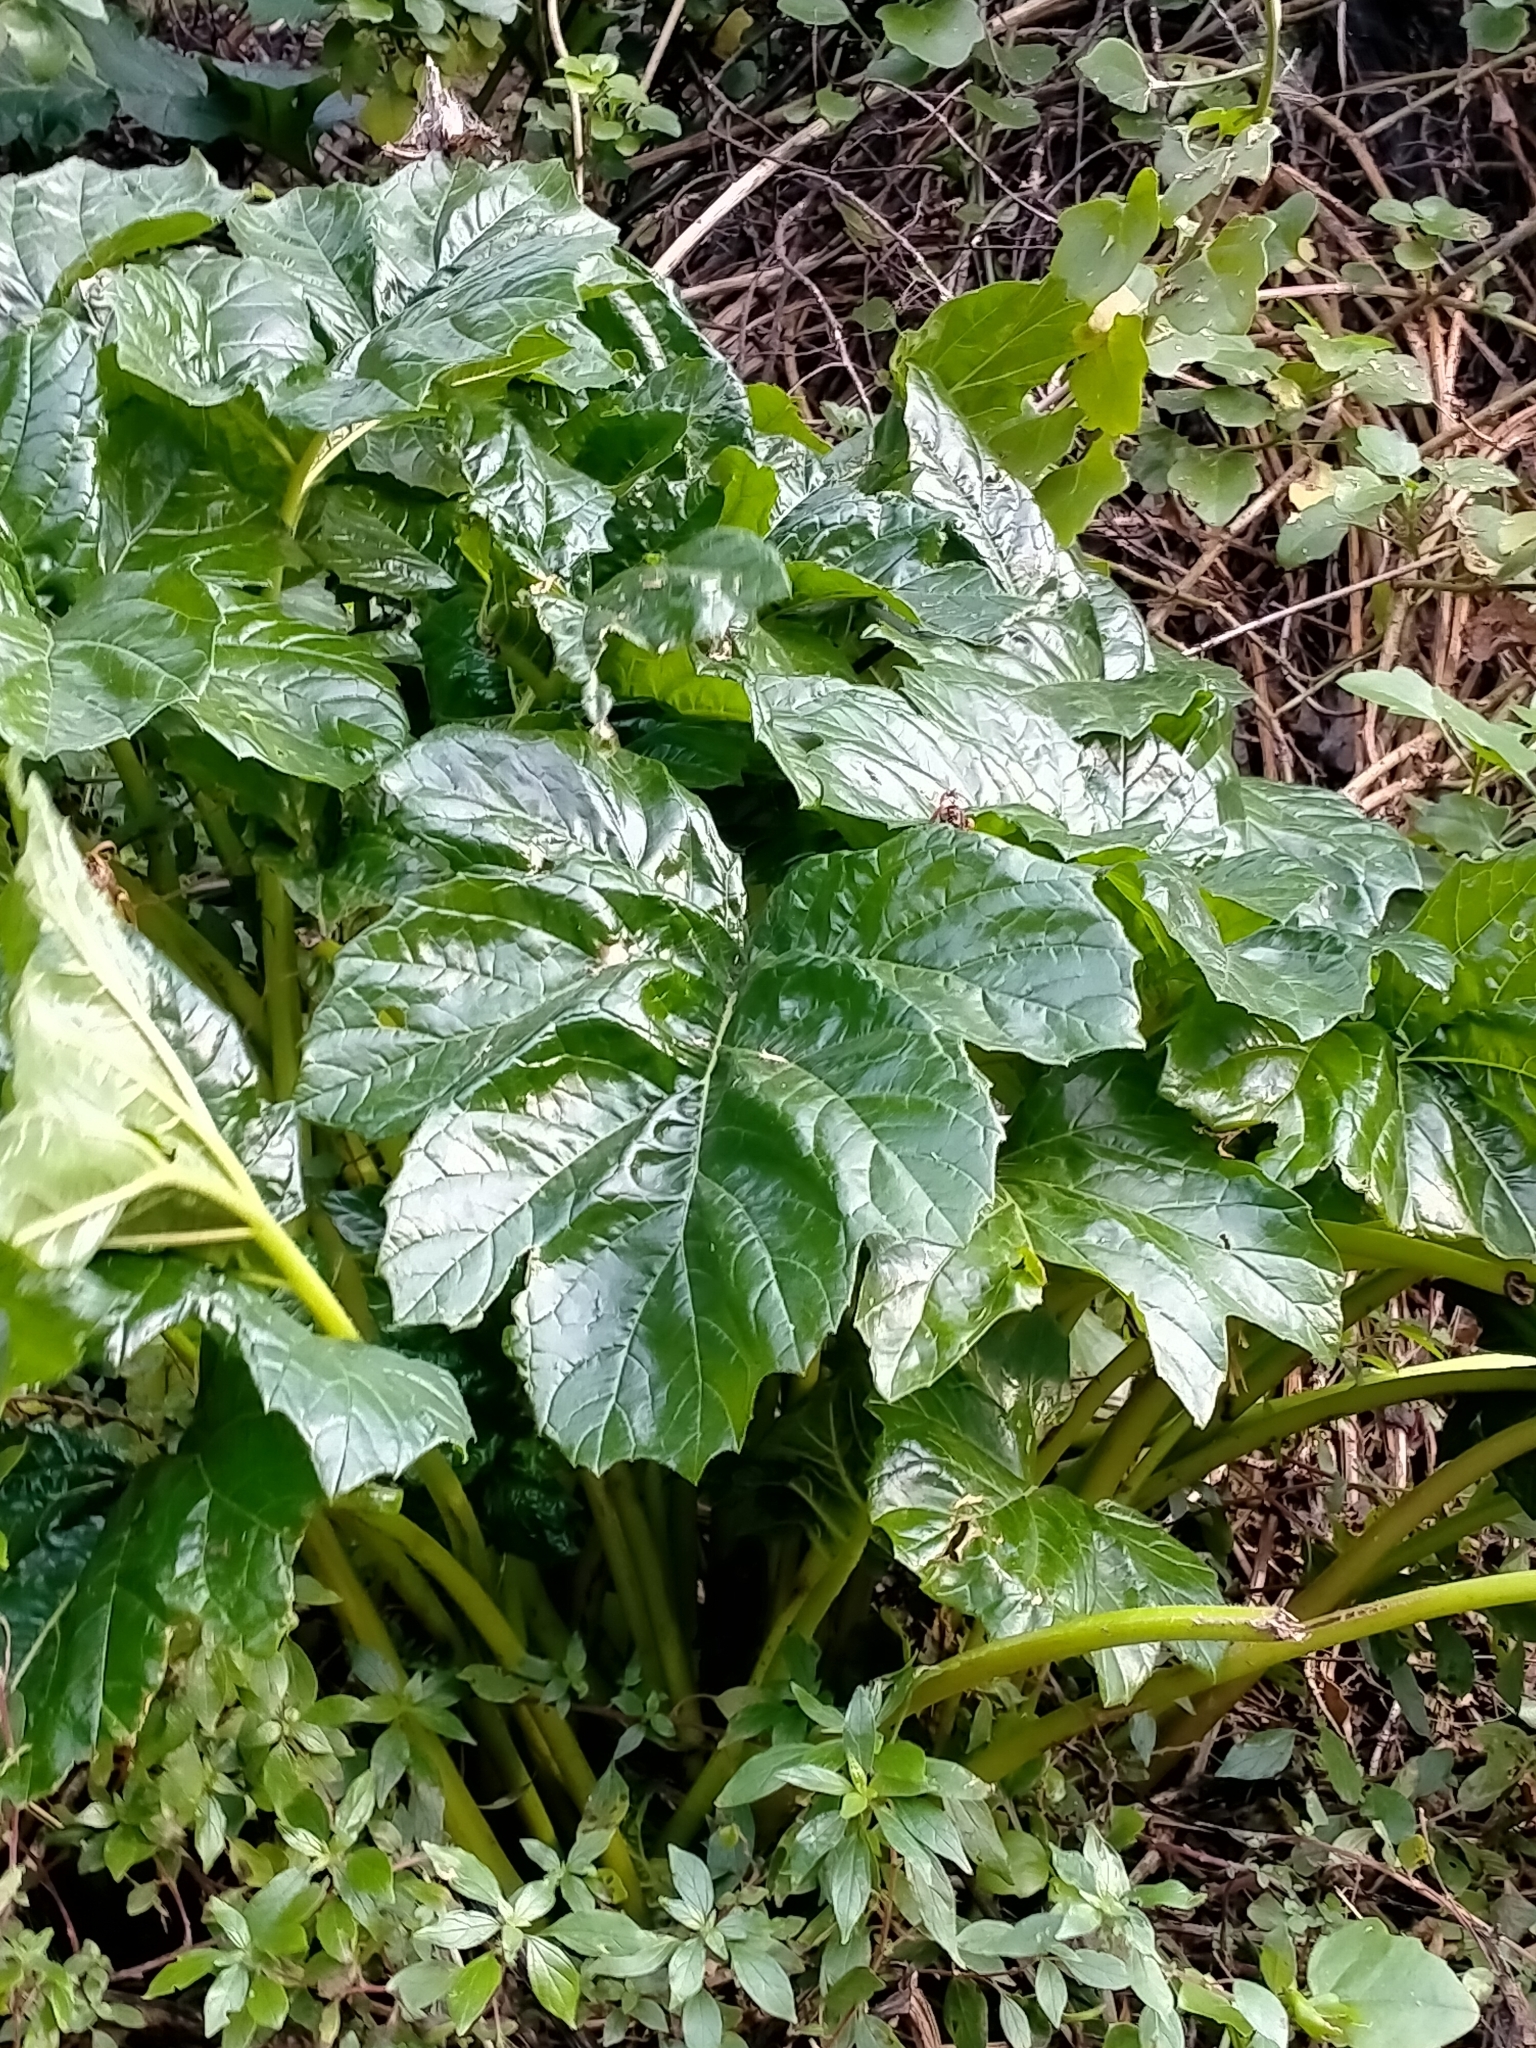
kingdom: Plantae
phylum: Tracheophyta
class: Magnoliopsida
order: Lamiales
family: Acanthaceae
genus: Acanthus
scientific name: Acanthus mollis
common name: Bear's-breech
